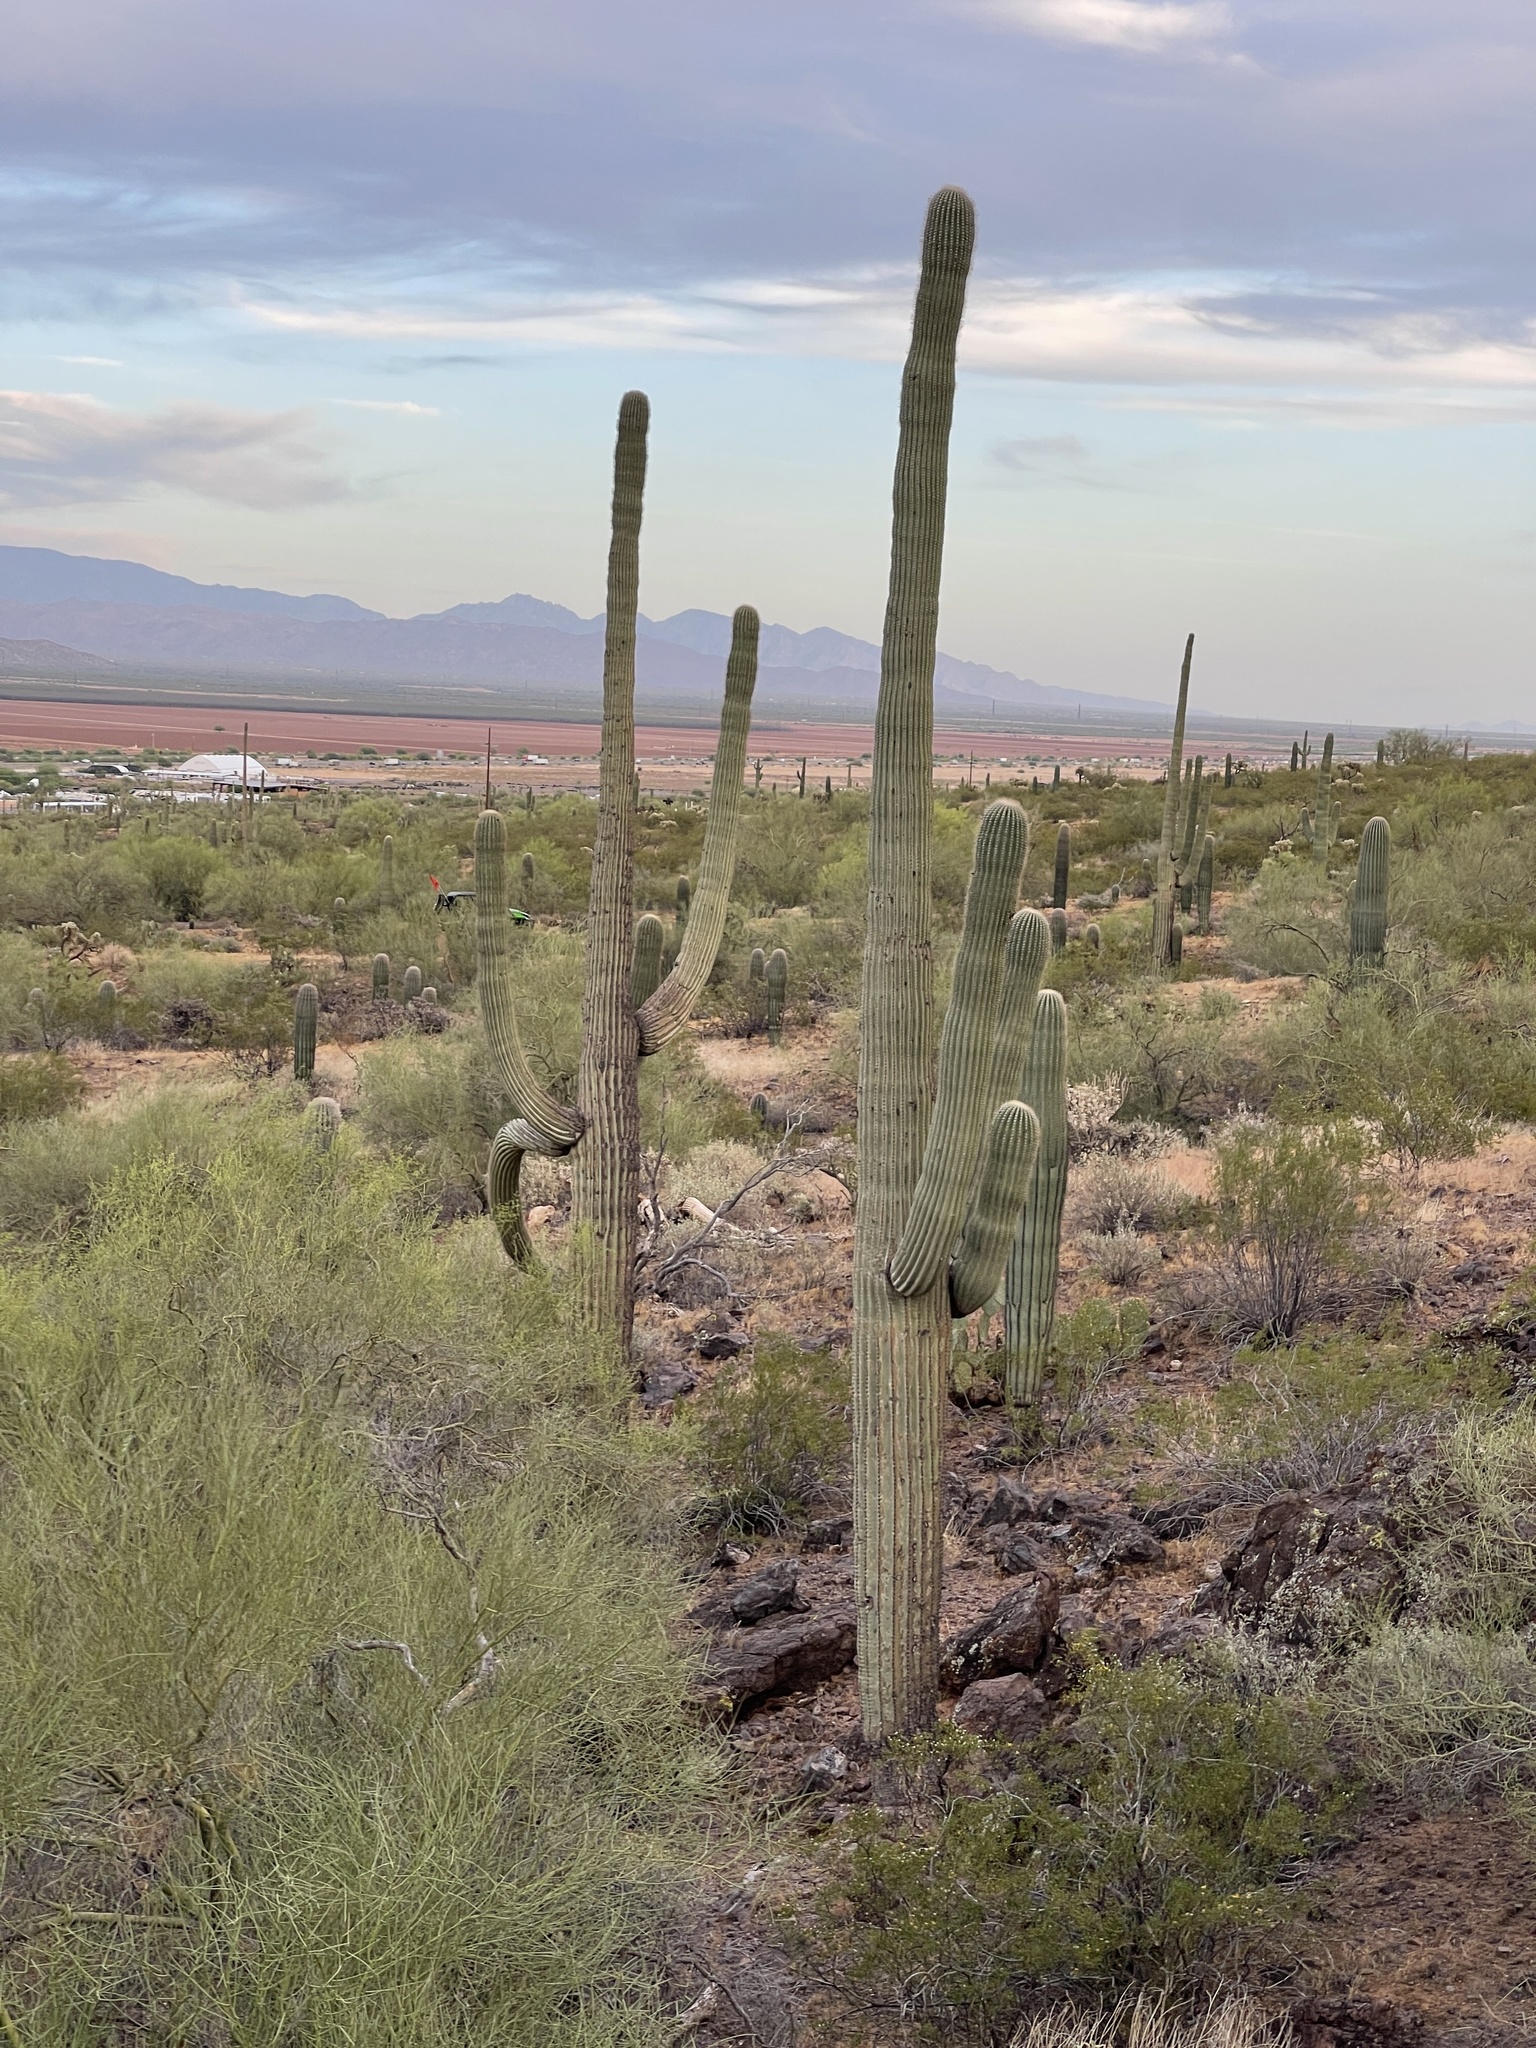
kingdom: Plantae
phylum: Tracheophyta
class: Magnoliopsida
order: Caryophyllales
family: Cactaceae
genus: Carnegiea
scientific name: Carnegiea gigantea
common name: Saguaro
